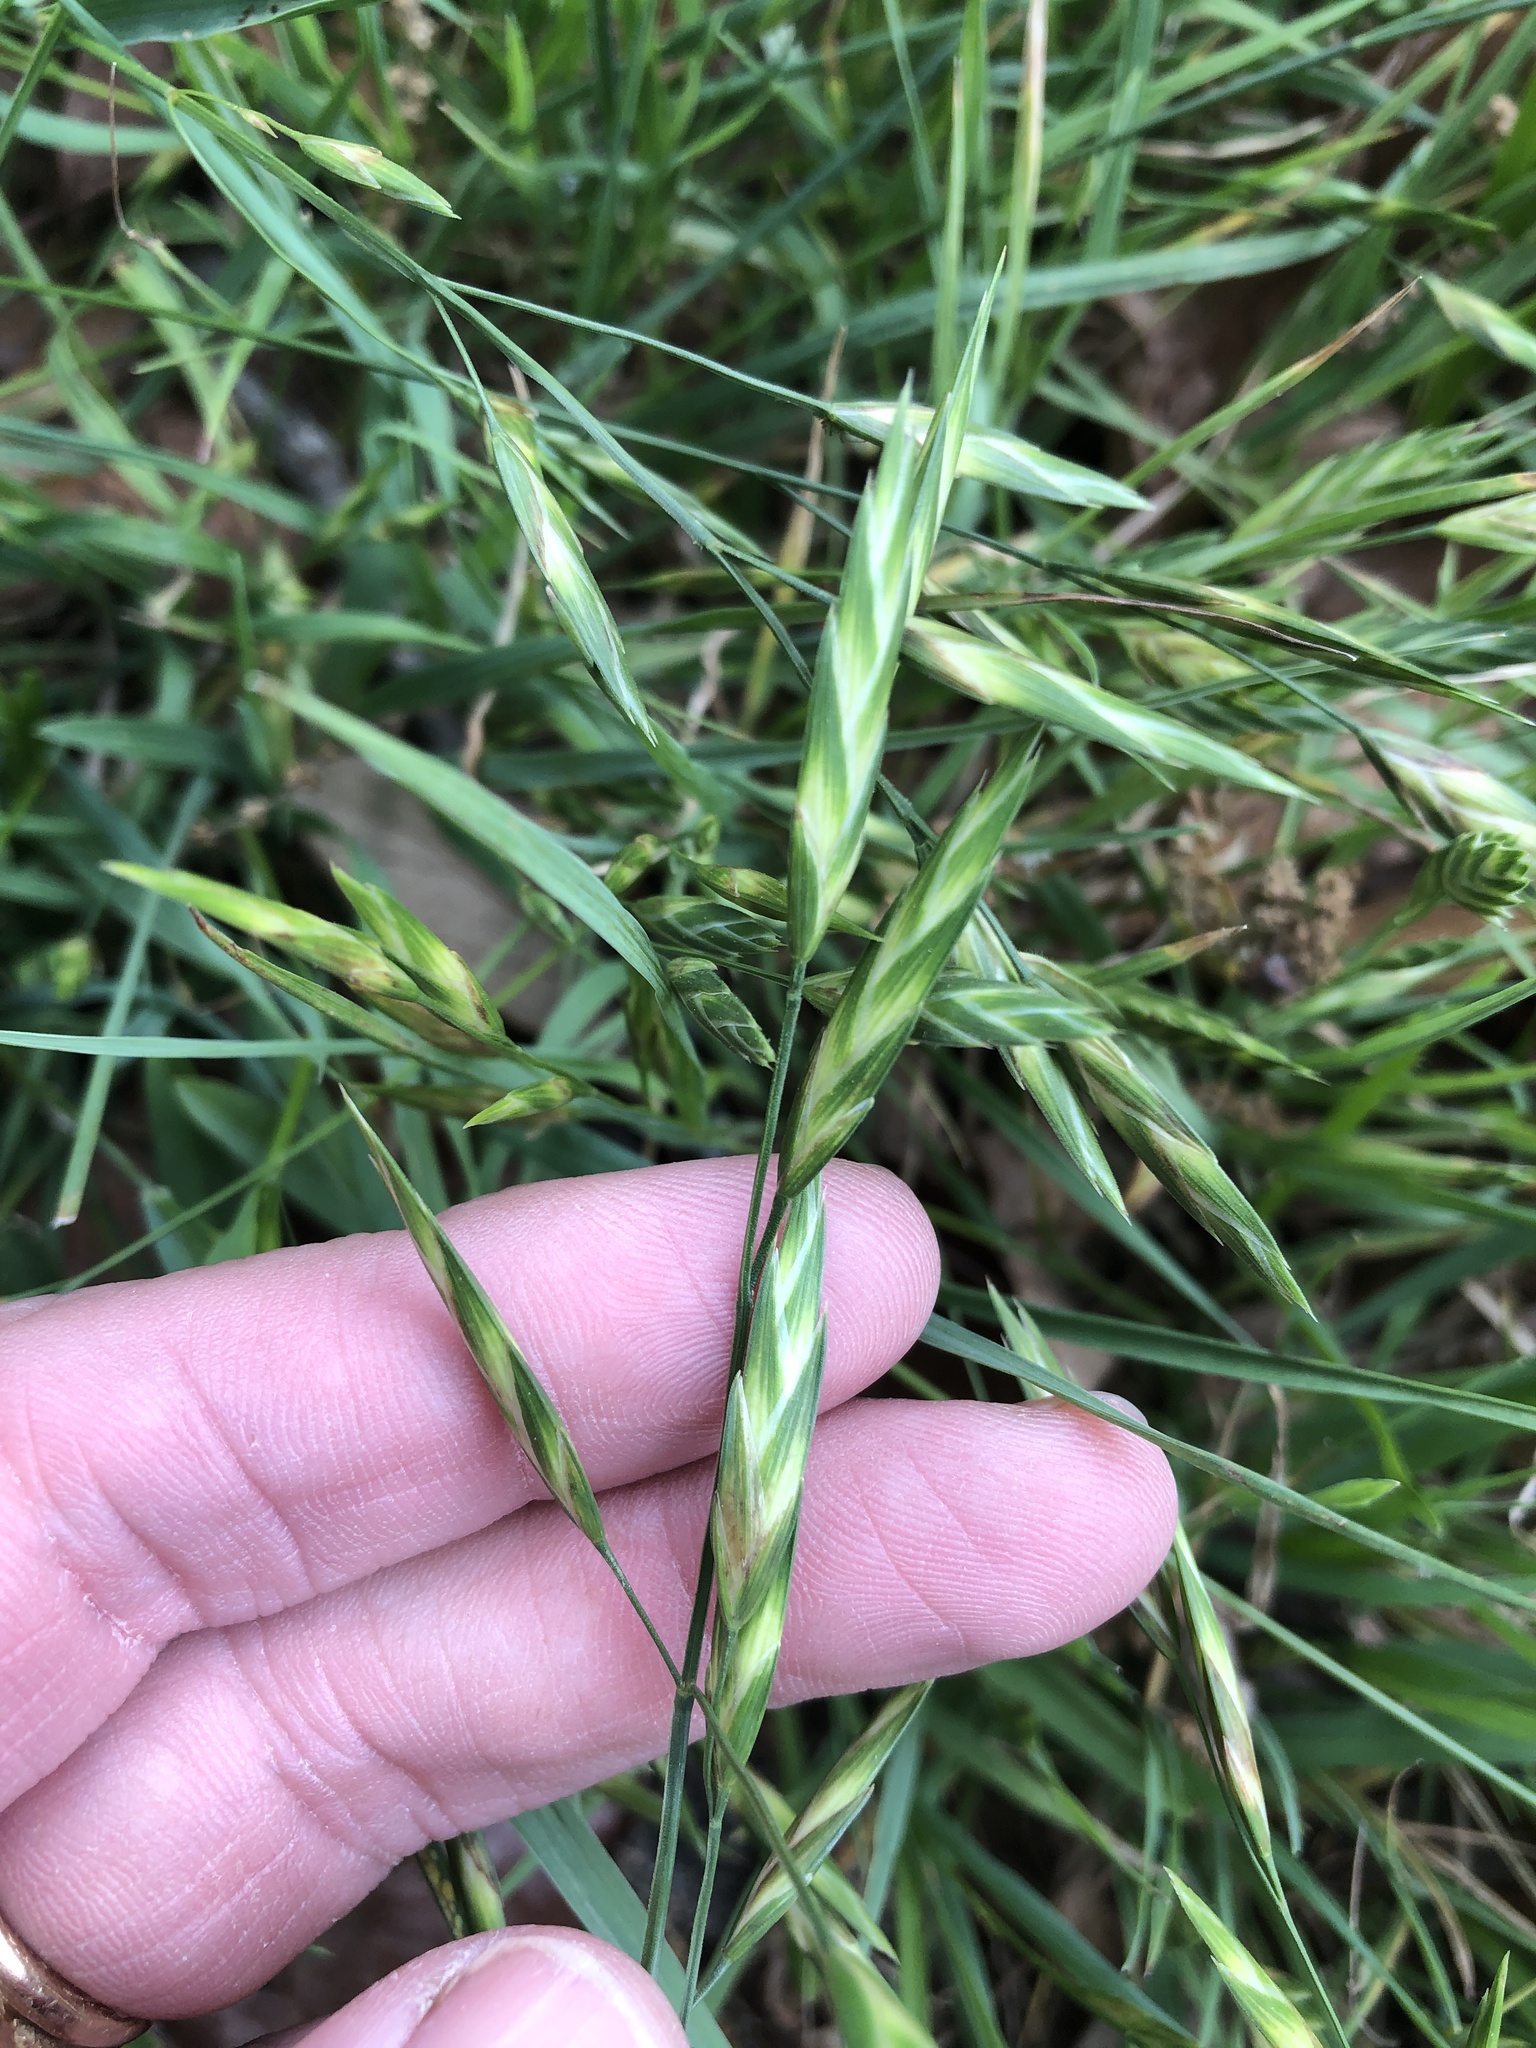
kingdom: Plantae
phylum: Tracheophyta
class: Liliopsida
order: Poales
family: Poaceae
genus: Bromus
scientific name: Bromus catharticus
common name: Rescuegrass
